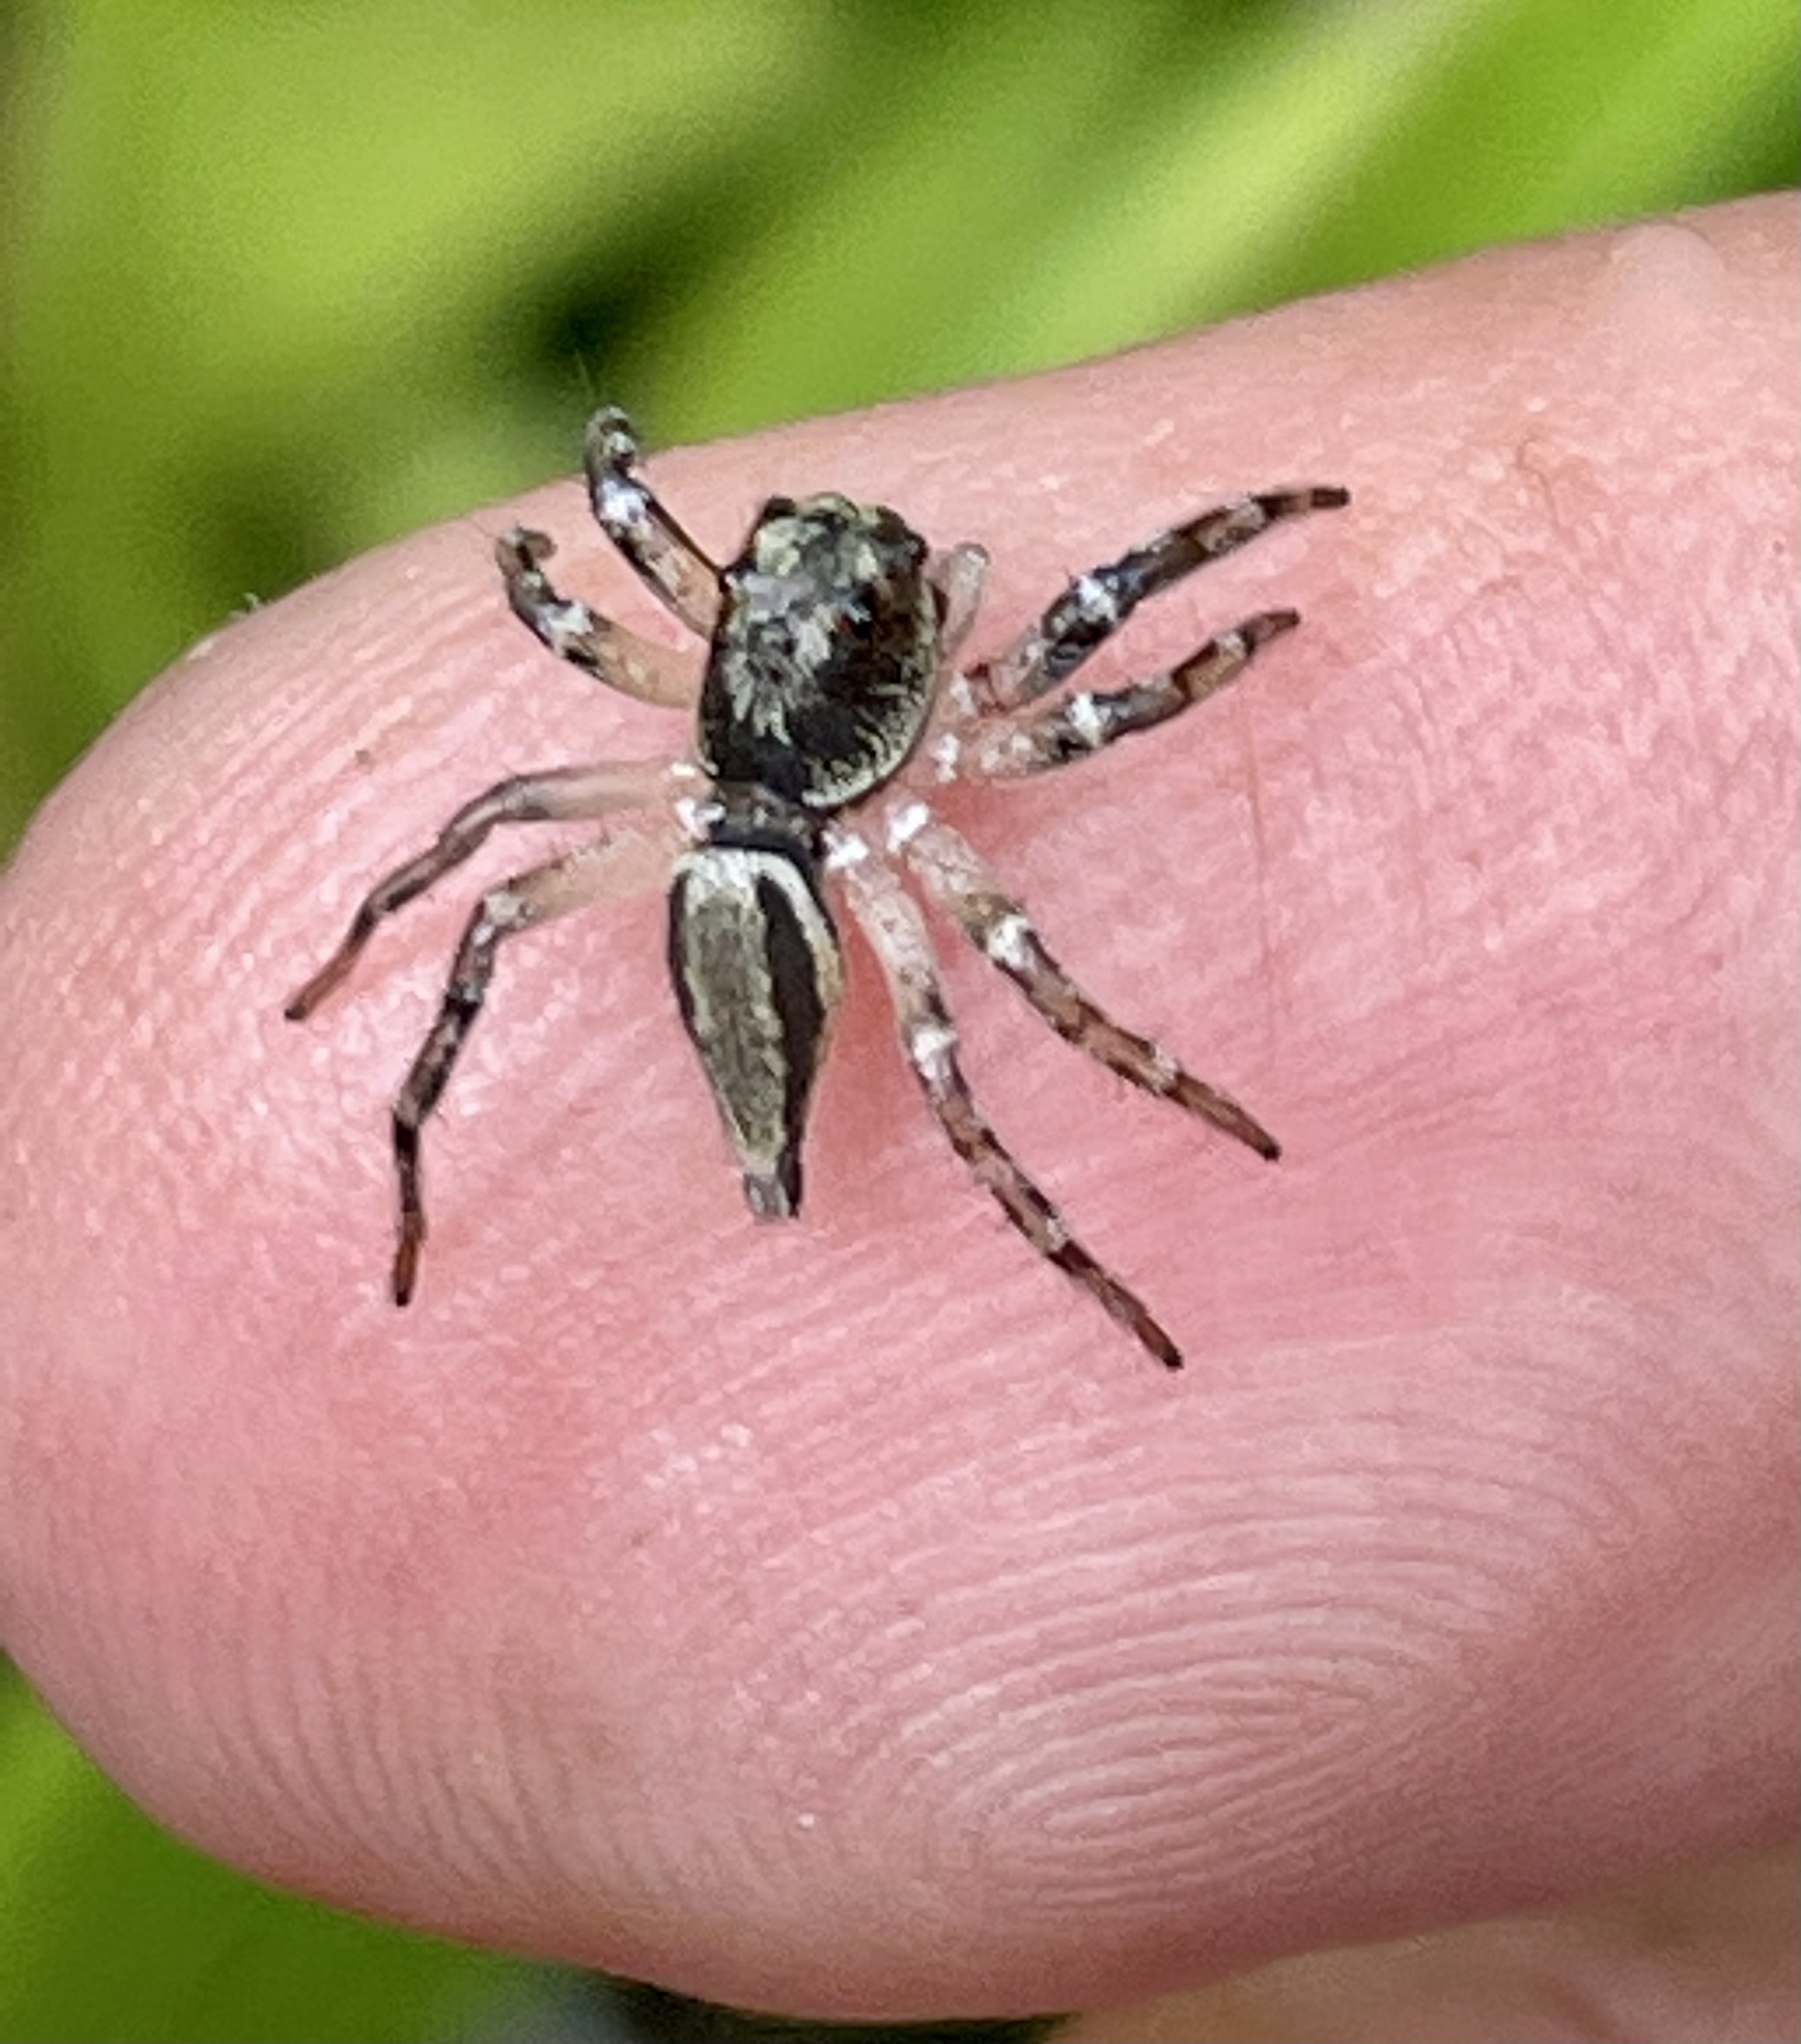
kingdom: Animalia
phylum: Arthropoda
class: Arachnida
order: Araneae
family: Salticidae
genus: Zenodorus
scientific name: Zenodorus swiftorum
